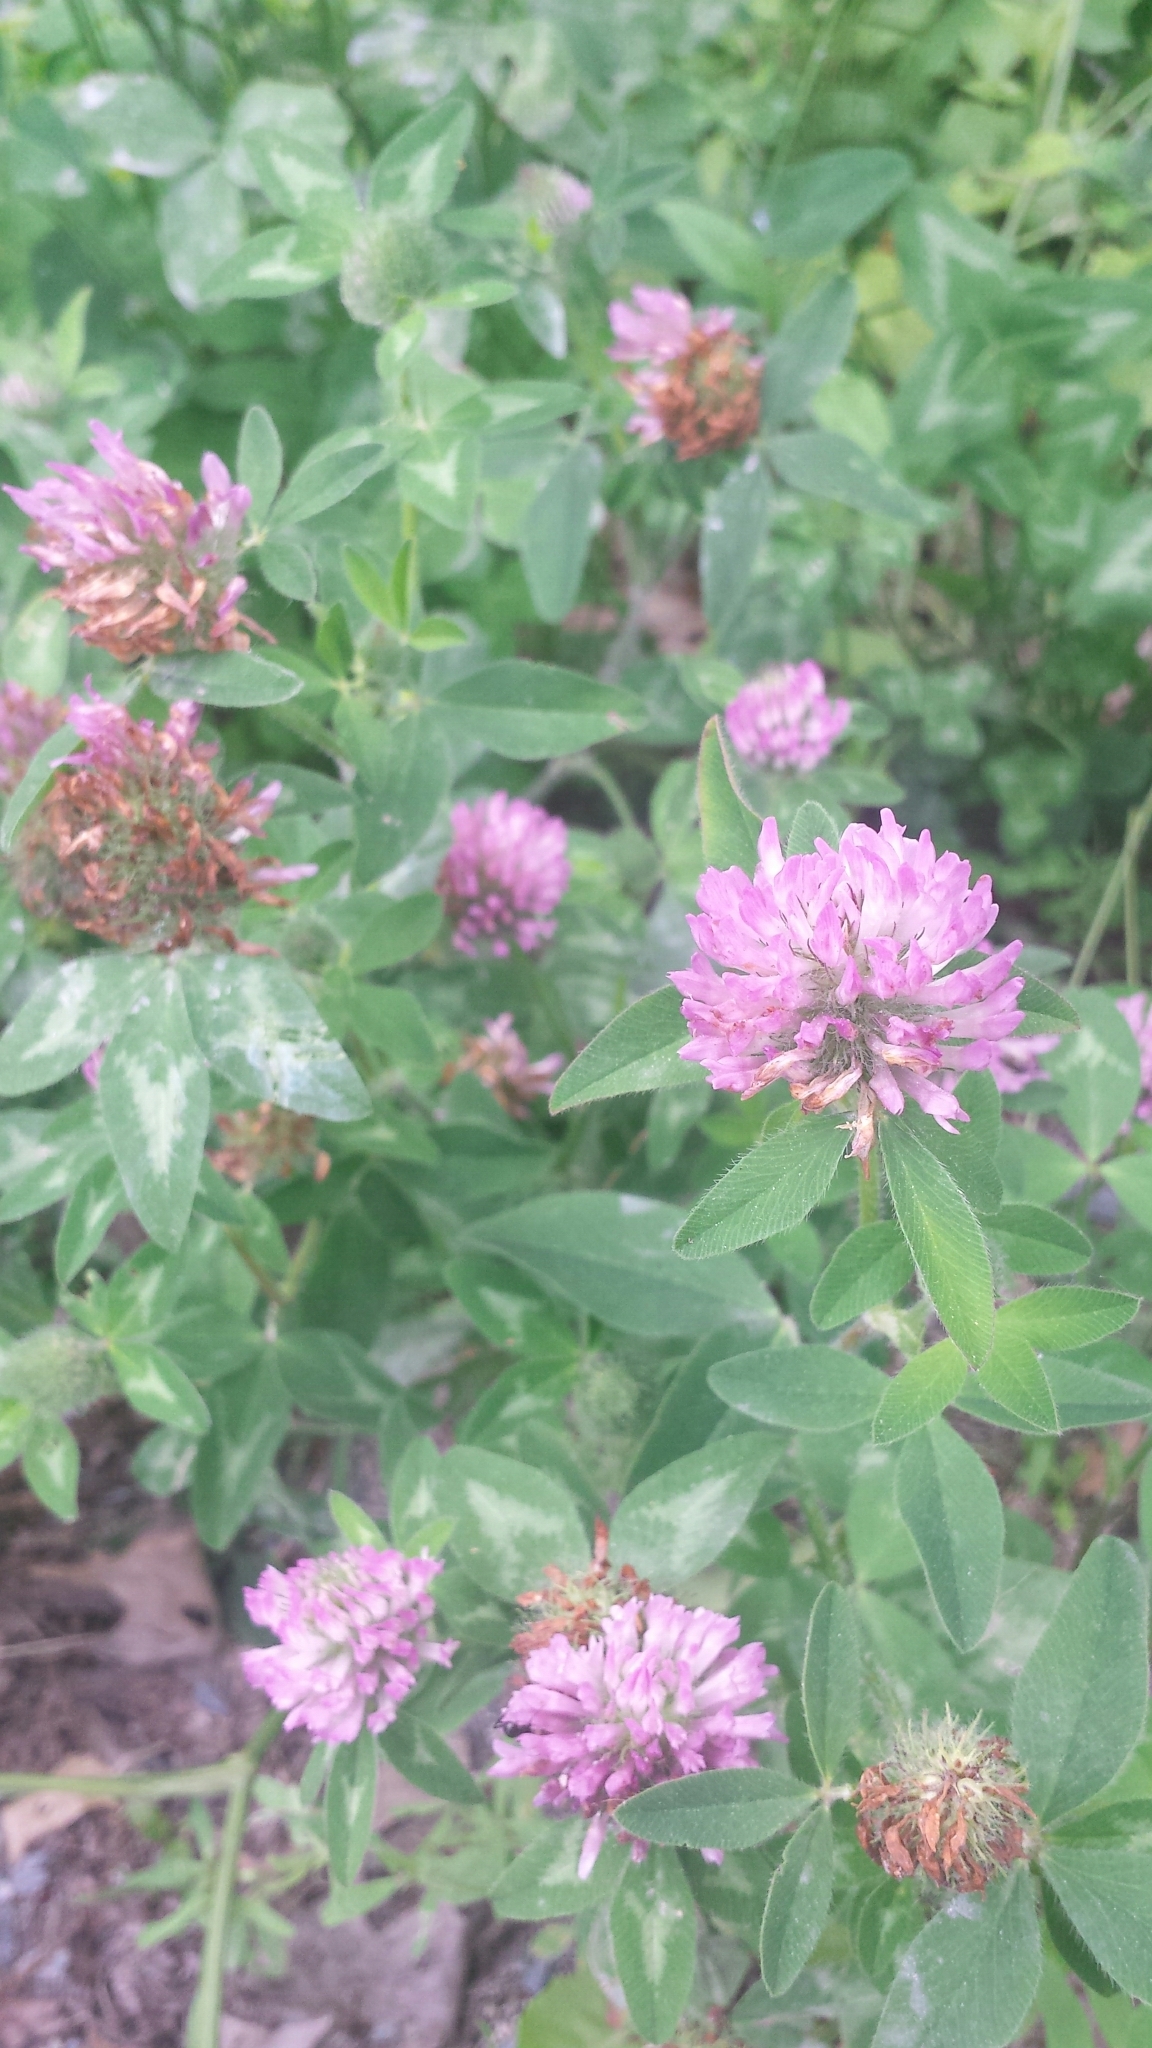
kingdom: Plantae
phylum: Tracheophyta
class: Magnoliopsida
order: Fabales
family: Fabaceae
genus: Trifolium
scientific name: Trifolium pratense
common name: Red clover
